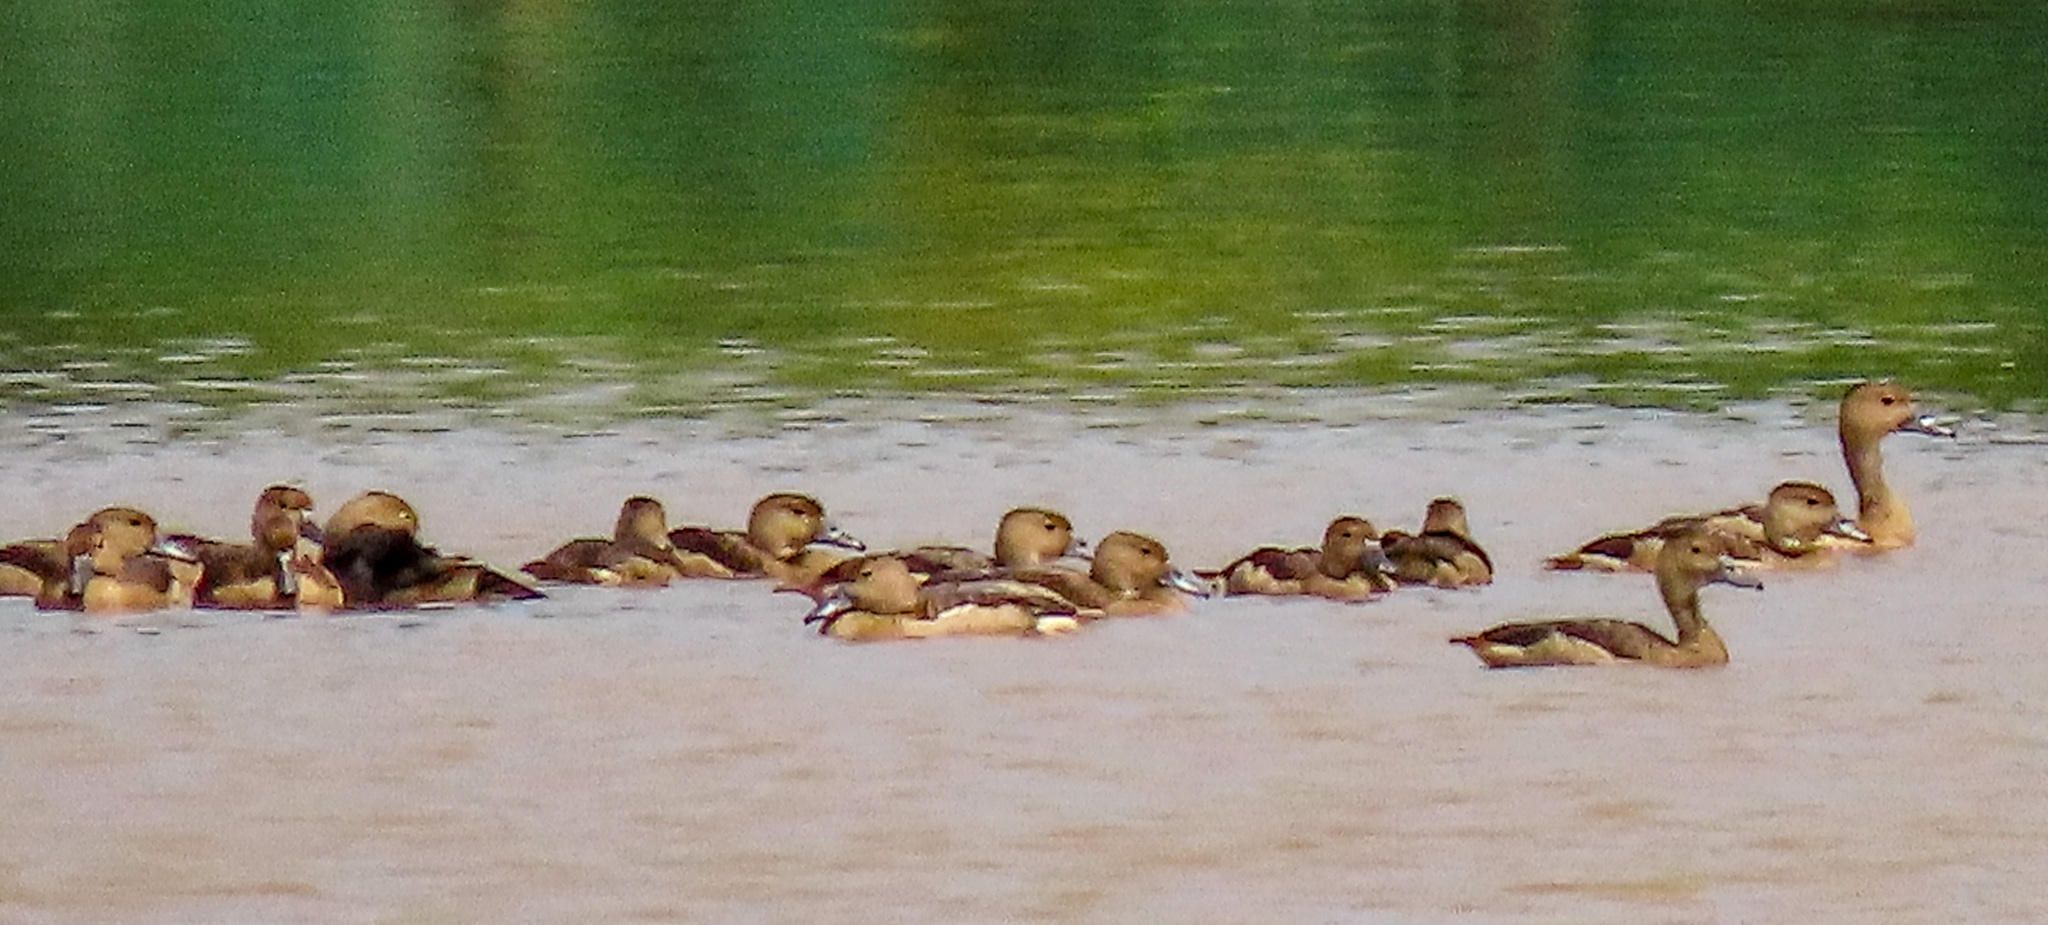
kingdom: Animalia
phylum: Chordata
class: Aves
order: Anseriformes
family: Anatidae
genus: Dendrocygna
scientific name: Dendrocygna javanica
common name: Lesser whistling-duck
